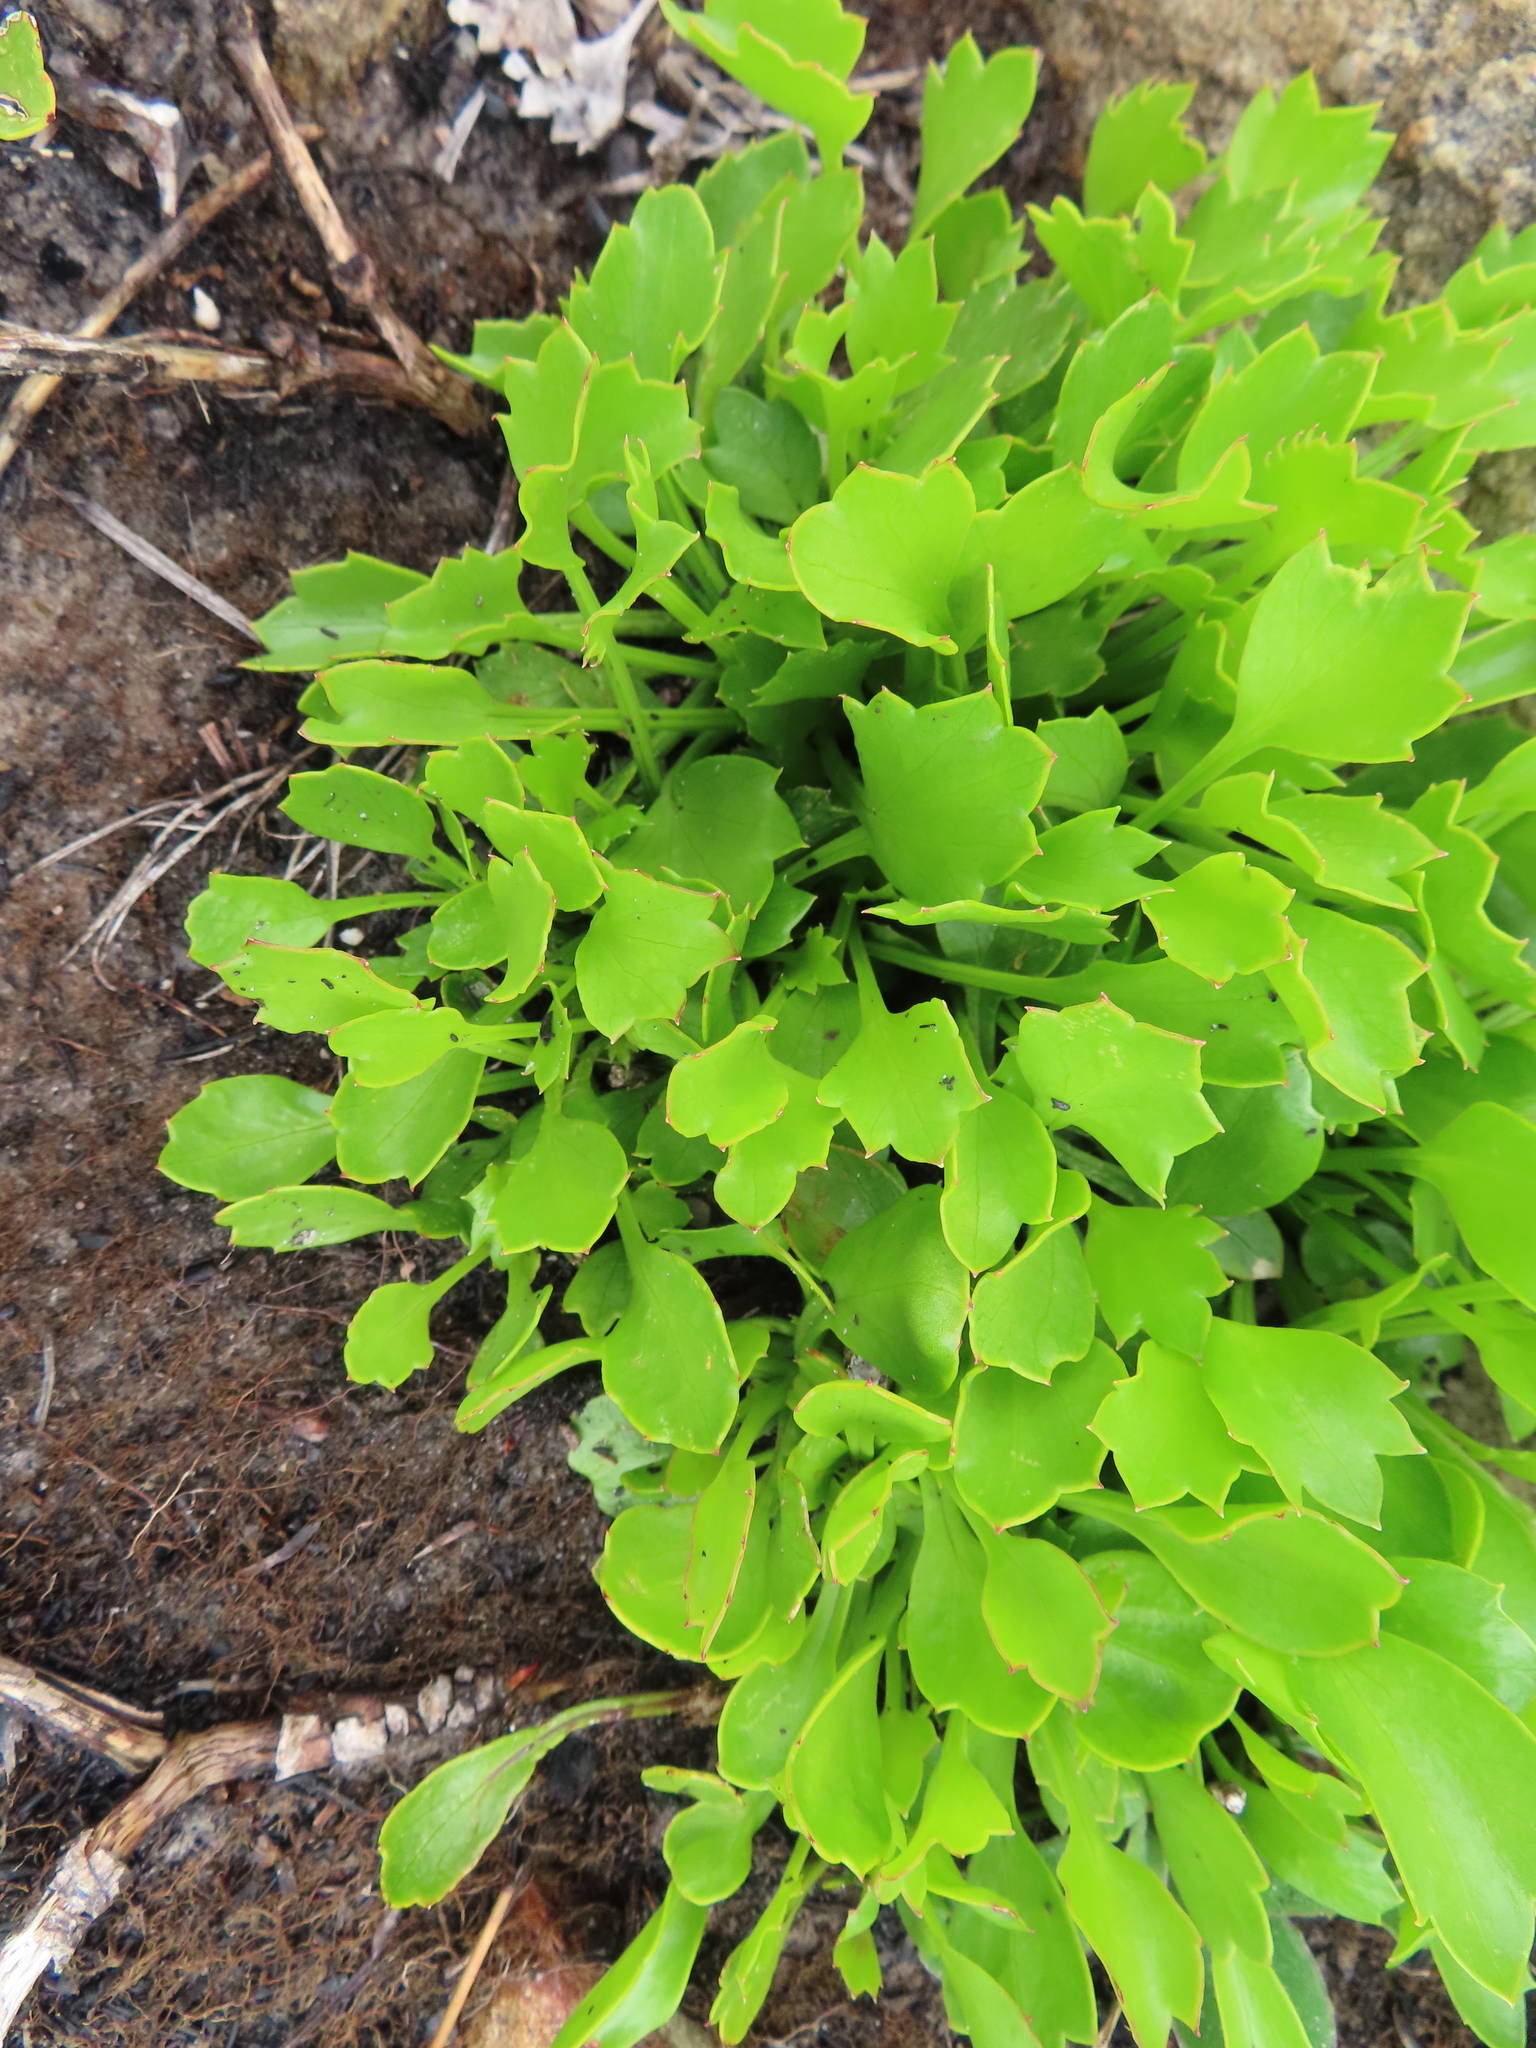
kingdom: Plantae
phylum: Tracheophyta
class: Magnoliopsida
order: Apiales
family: Apiaceae
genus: Centella
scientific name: Centella triloba
